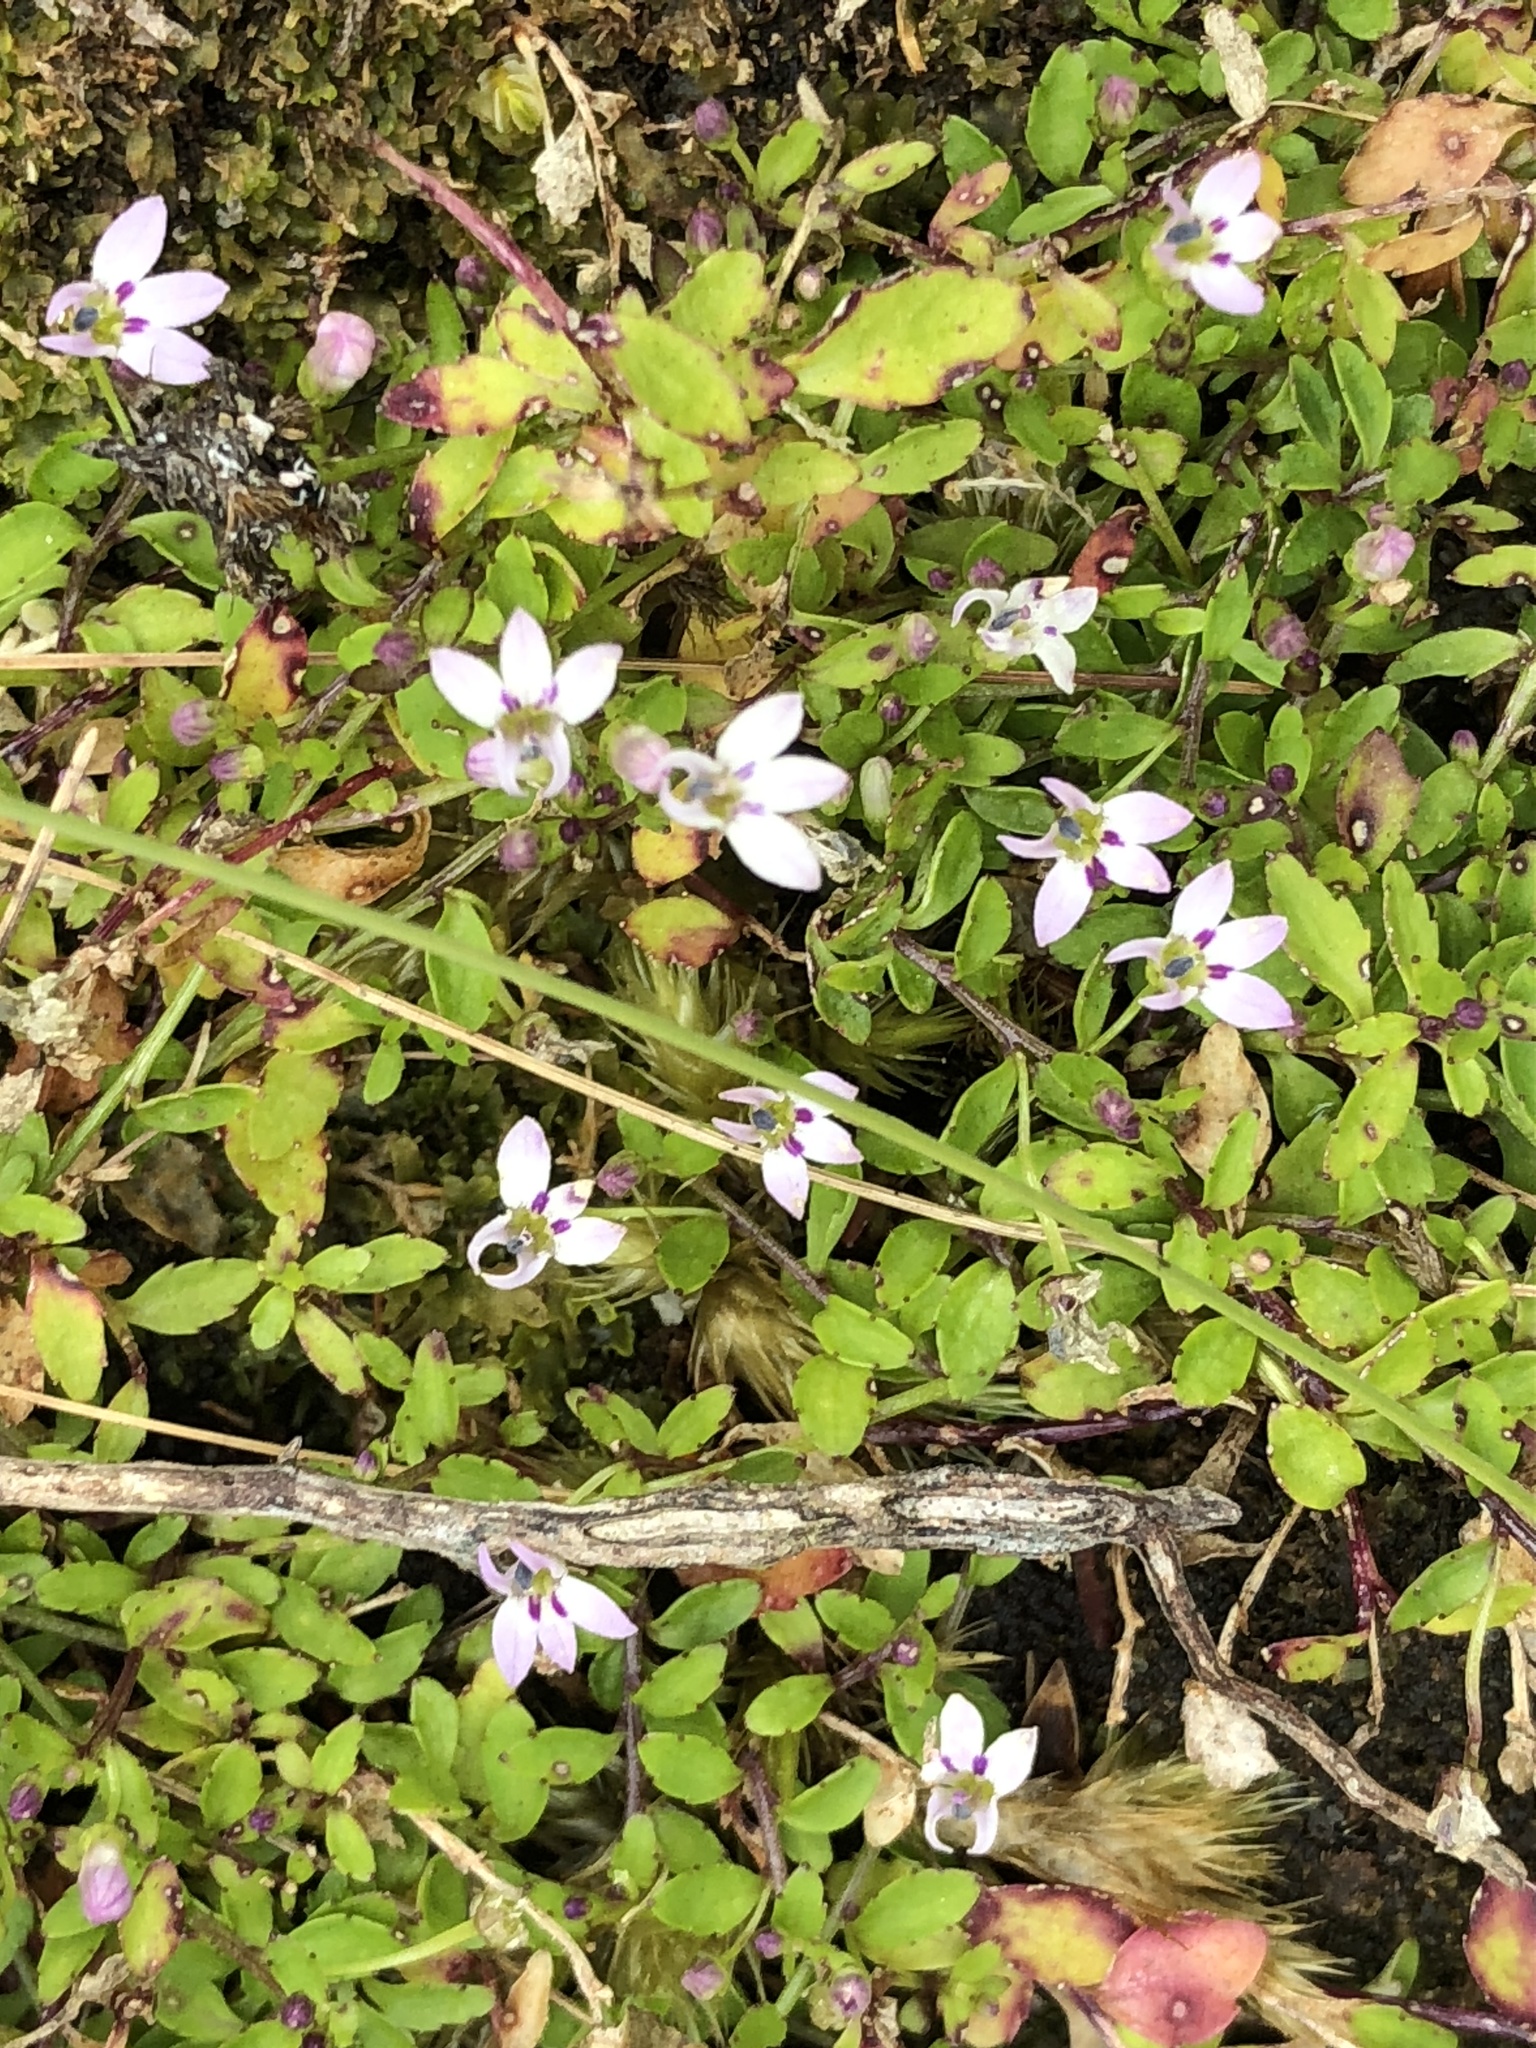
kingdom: Plantae
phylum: Tracheophyta
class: Magnoliopsida
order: Asterales
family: Campanulaceae
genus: Unigenes
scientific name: Unigenes humifusa
